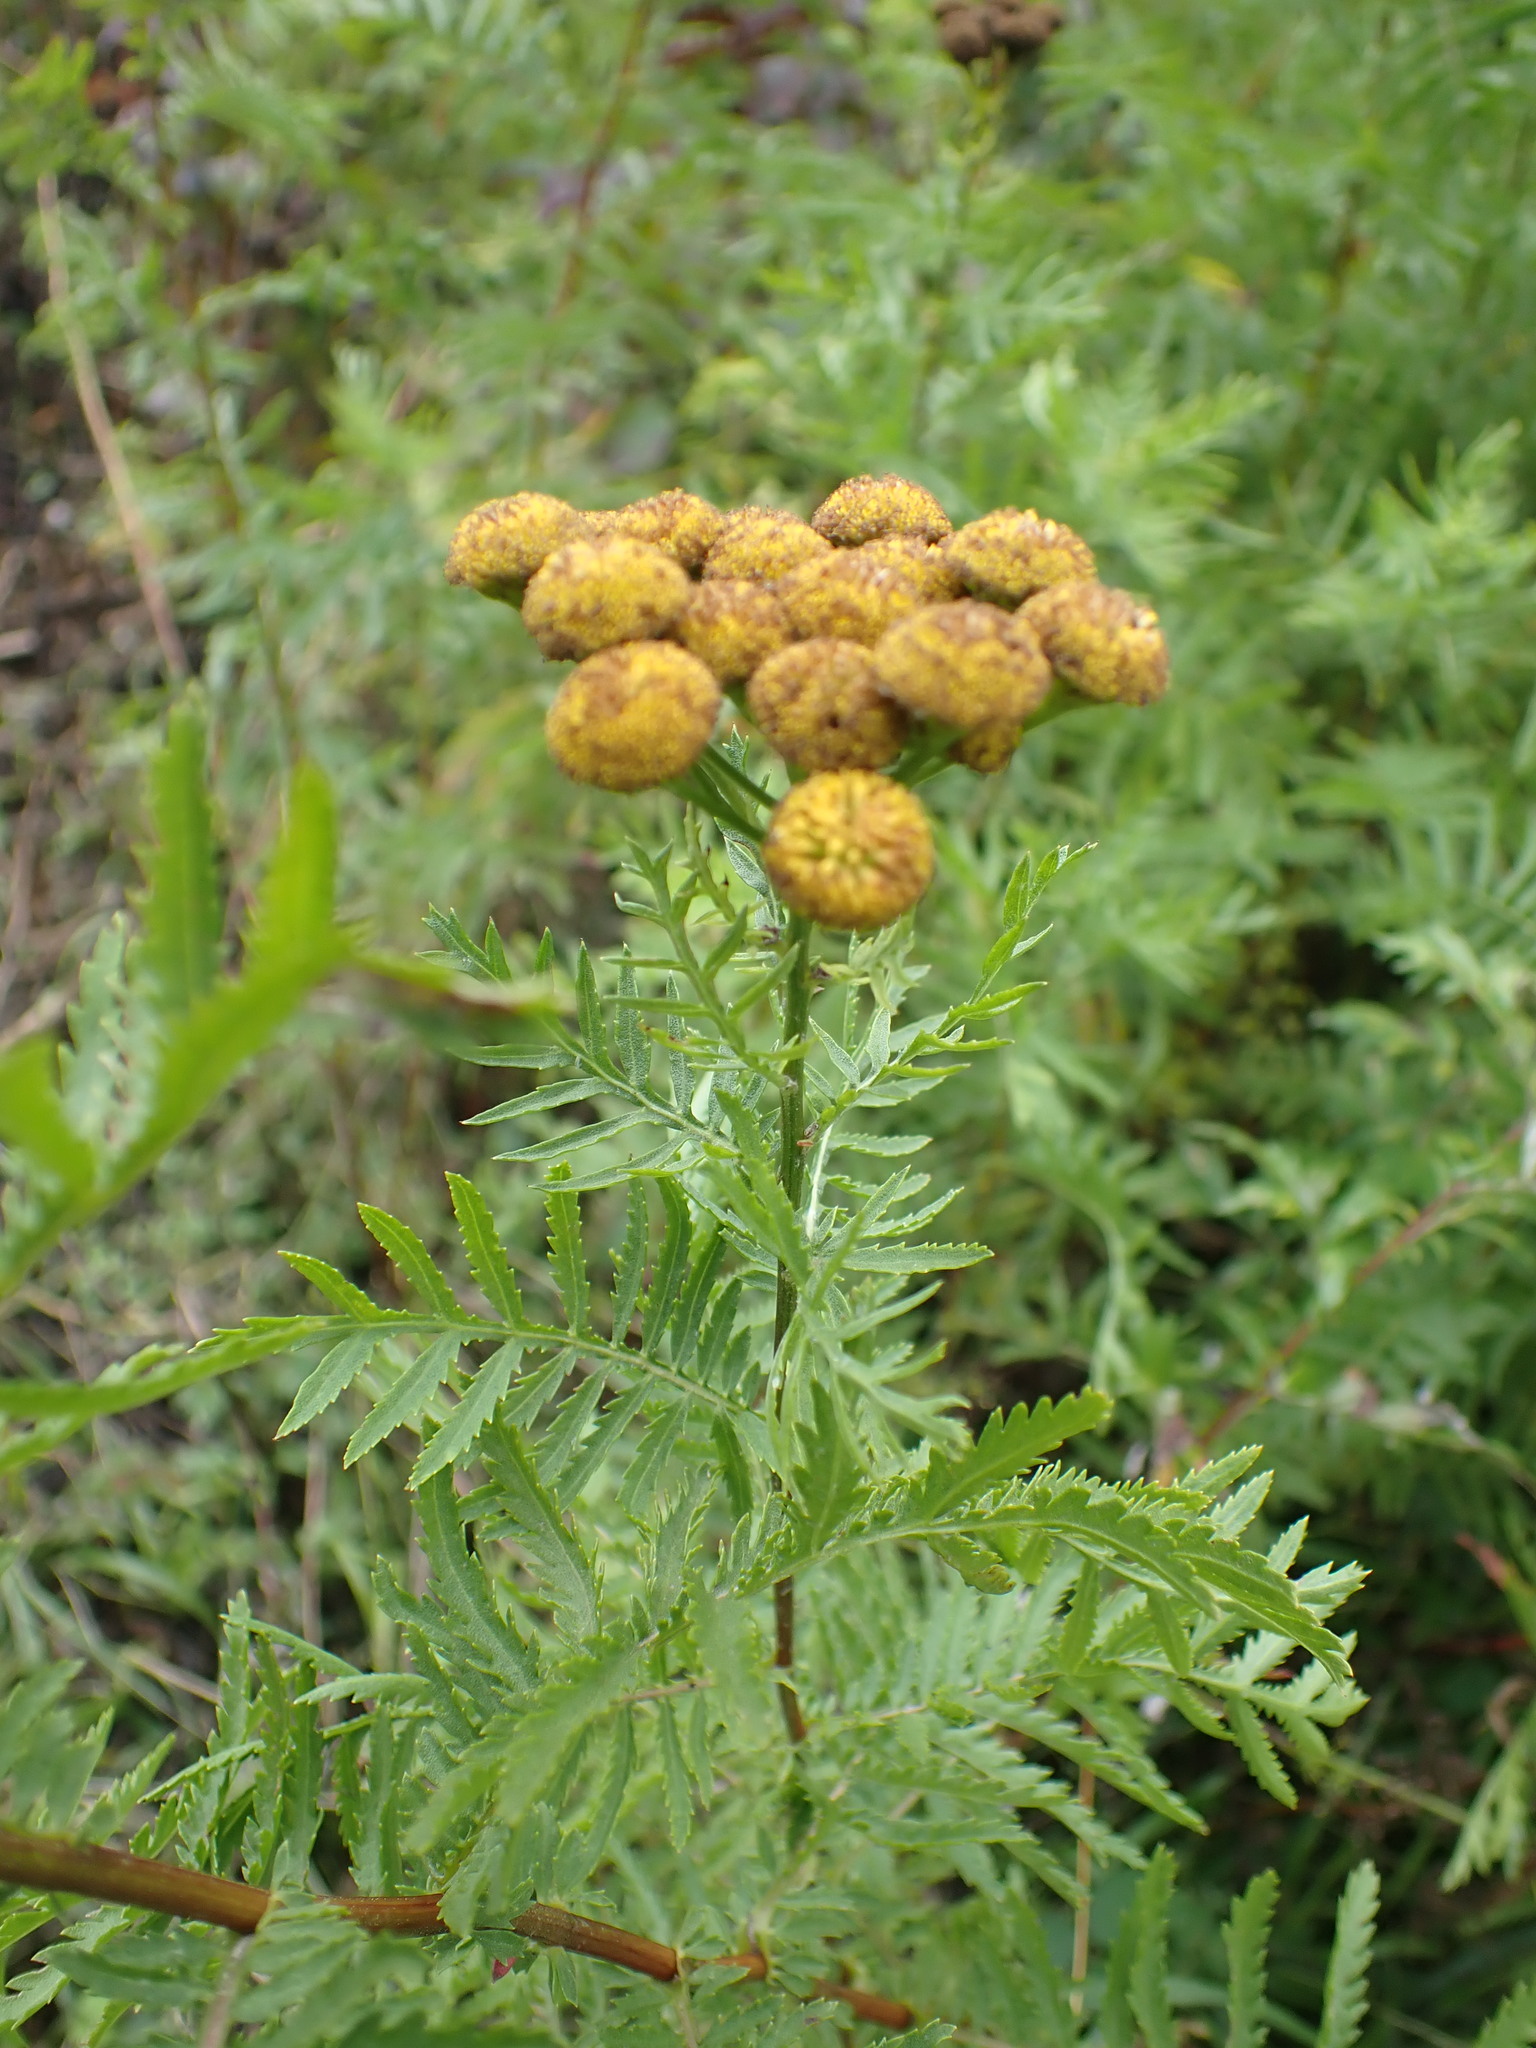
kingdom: Plantae
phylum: Tracheophyta
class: Magnoliopsida
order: Asterales
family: Asteraceae
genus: Tanacetum
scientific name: Tanacetum vulgare
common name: Common tansy
